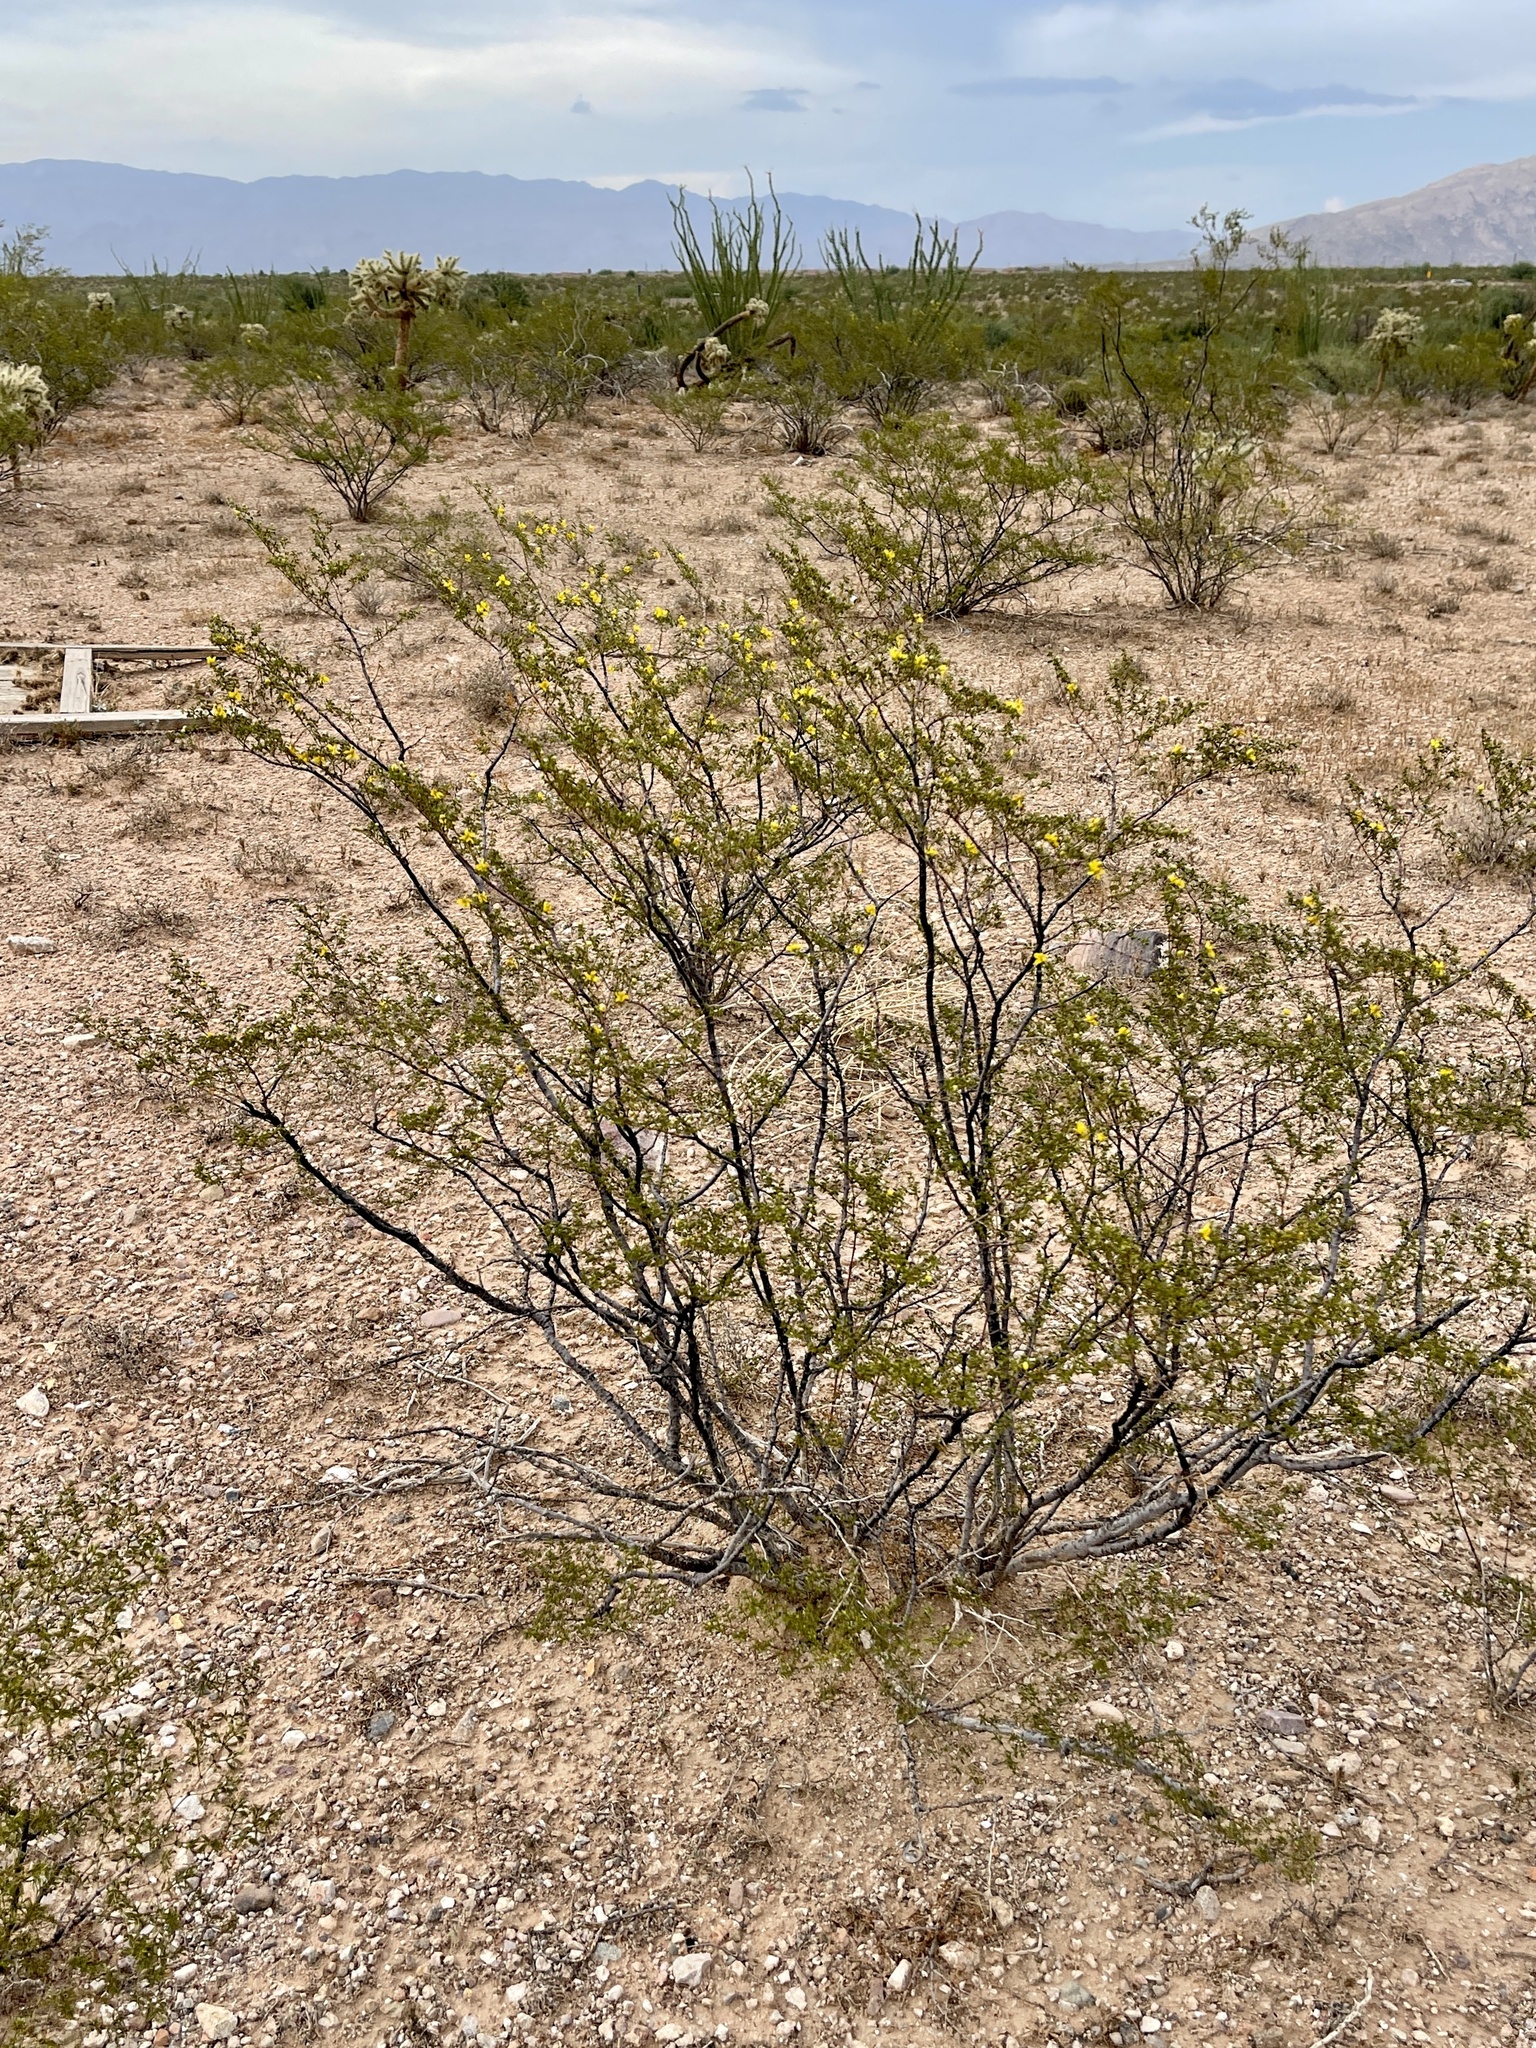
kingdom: Plantae
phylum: Tracheophyta
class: Magnoliopsida
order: Zygophyllales
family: Zygophyllaceae
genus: Larrea
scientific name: Larrea tridentata
